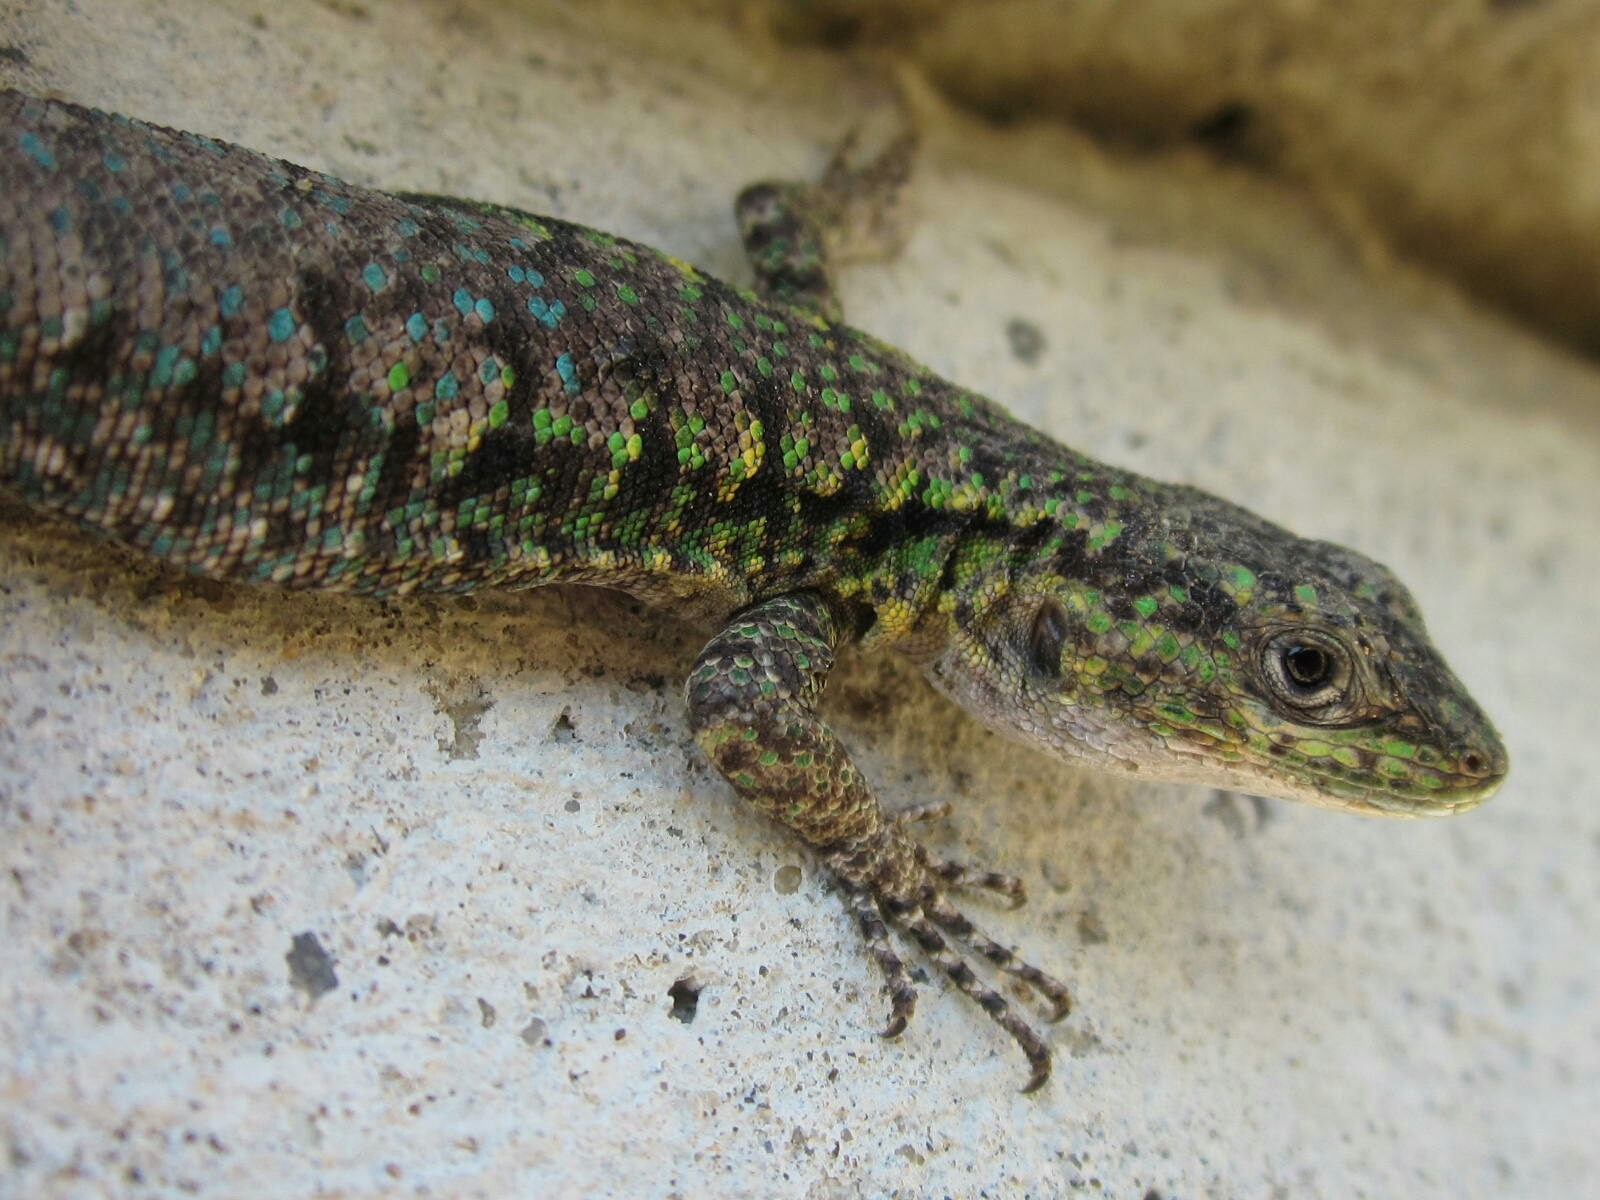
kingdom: Animalia
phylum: Chordata
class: Squamata
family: Liolaemidae
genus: Liolaemus
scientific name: Liolaemus tenuis
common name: Thin tree iguana
